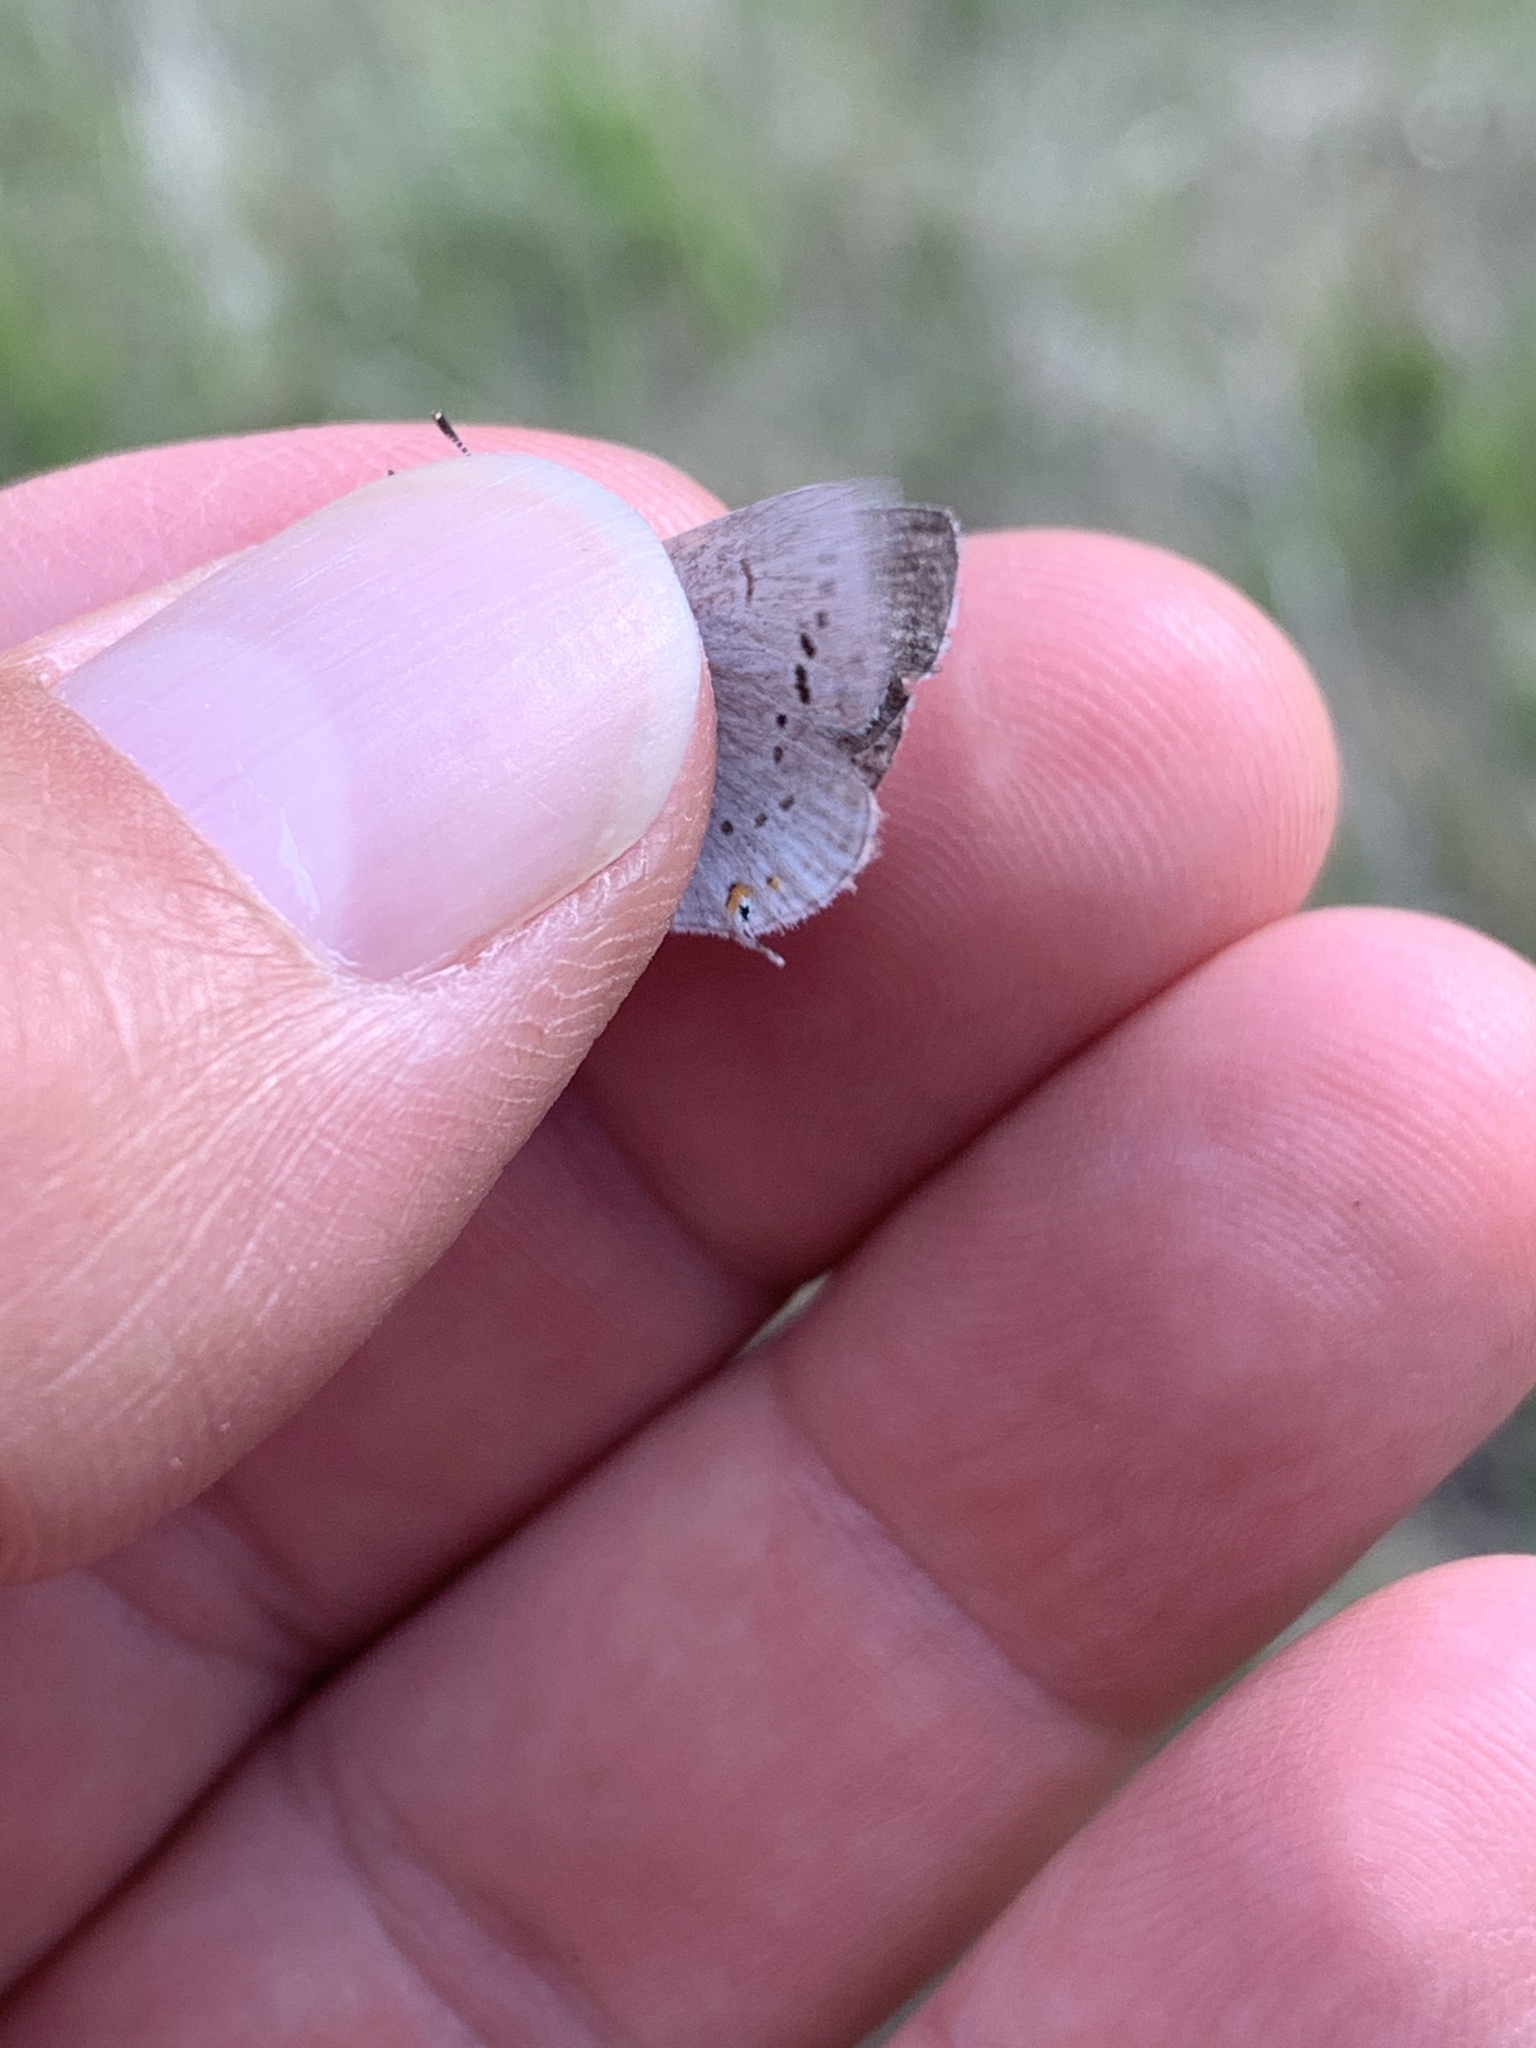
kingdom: Animalia
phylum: Arthropoda
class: Insecta
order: Lepidoptera
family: Lycaenidae
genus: Elkalyce
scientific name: Elkalyce amyntula
